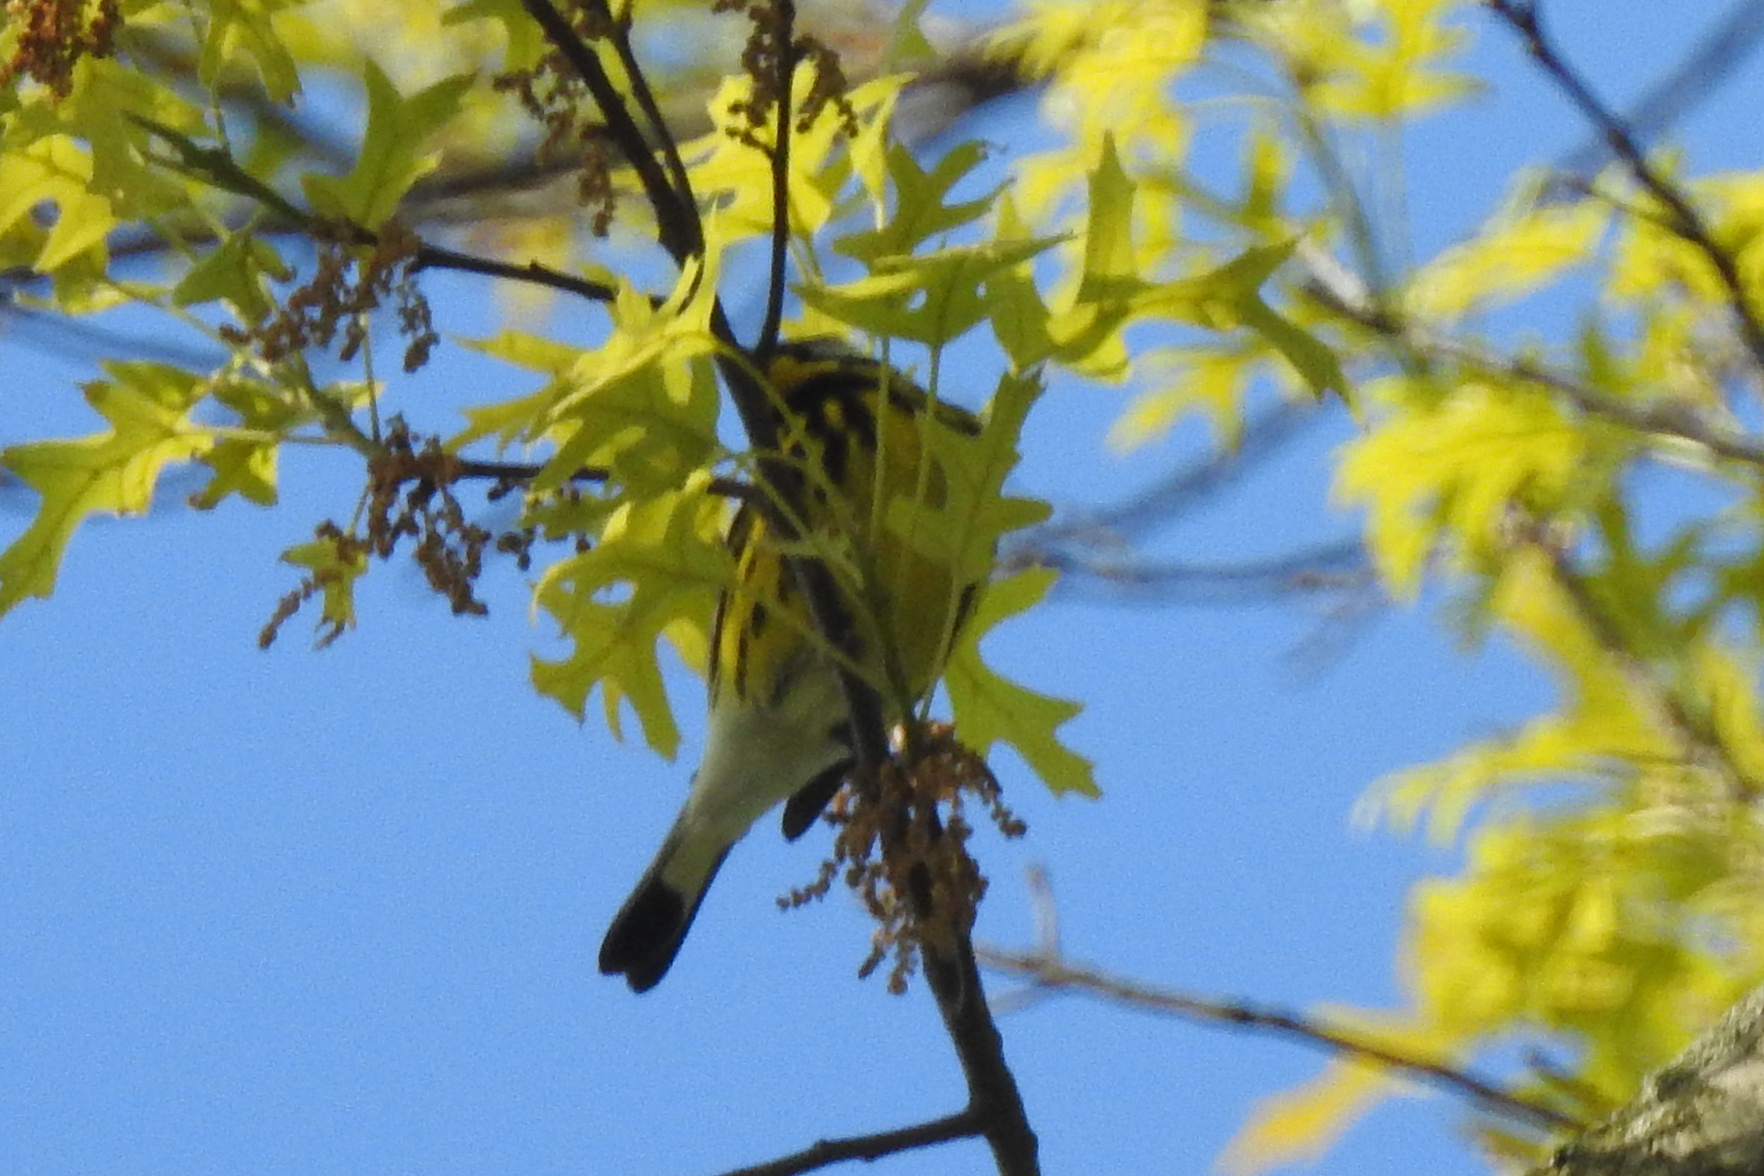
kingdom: Animalia
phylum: Chordata
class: Aves
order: Passeriformes
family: Parulidae
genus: Setophaga
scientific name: Setophaga magnolia
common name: Magnolia warbler
